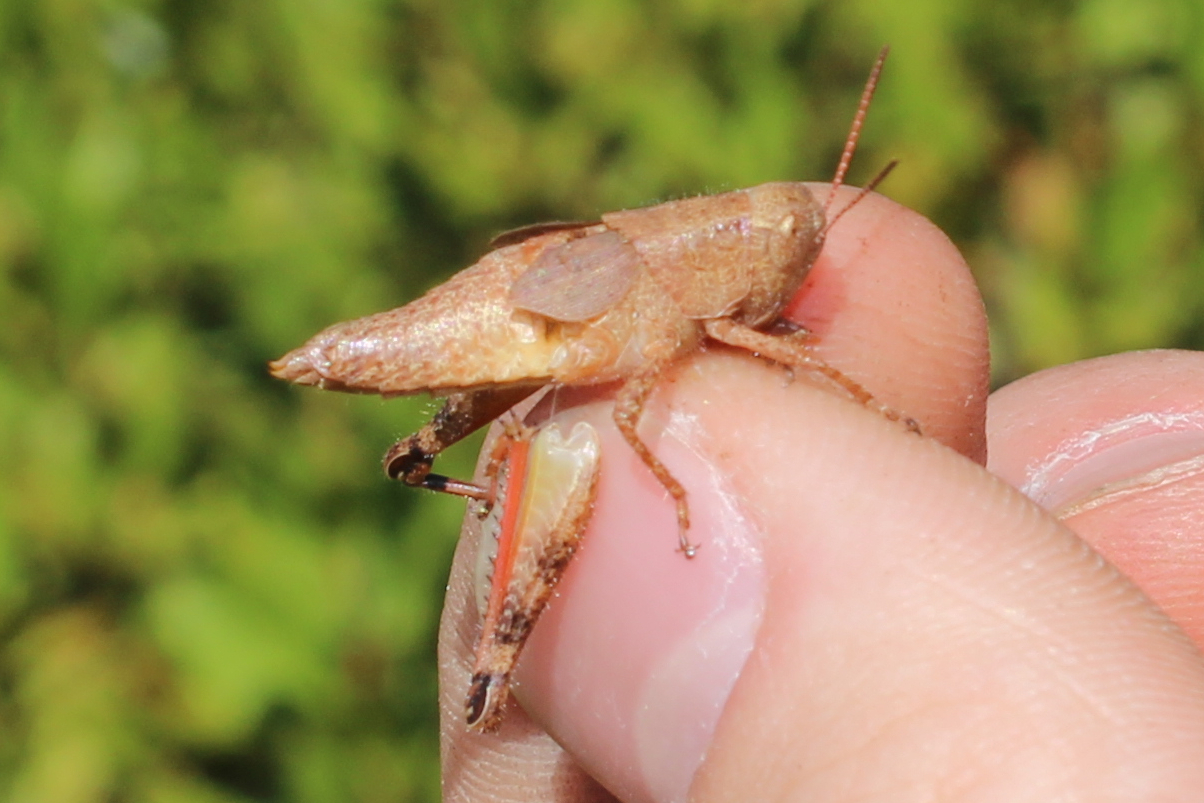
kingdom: Animalia
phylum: Arthropoda
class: Insecta
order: Orthoptera
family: Acrididae
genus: Melanoplus
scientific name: Melanoplus scudderi
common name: Scudder's short-winged locust
